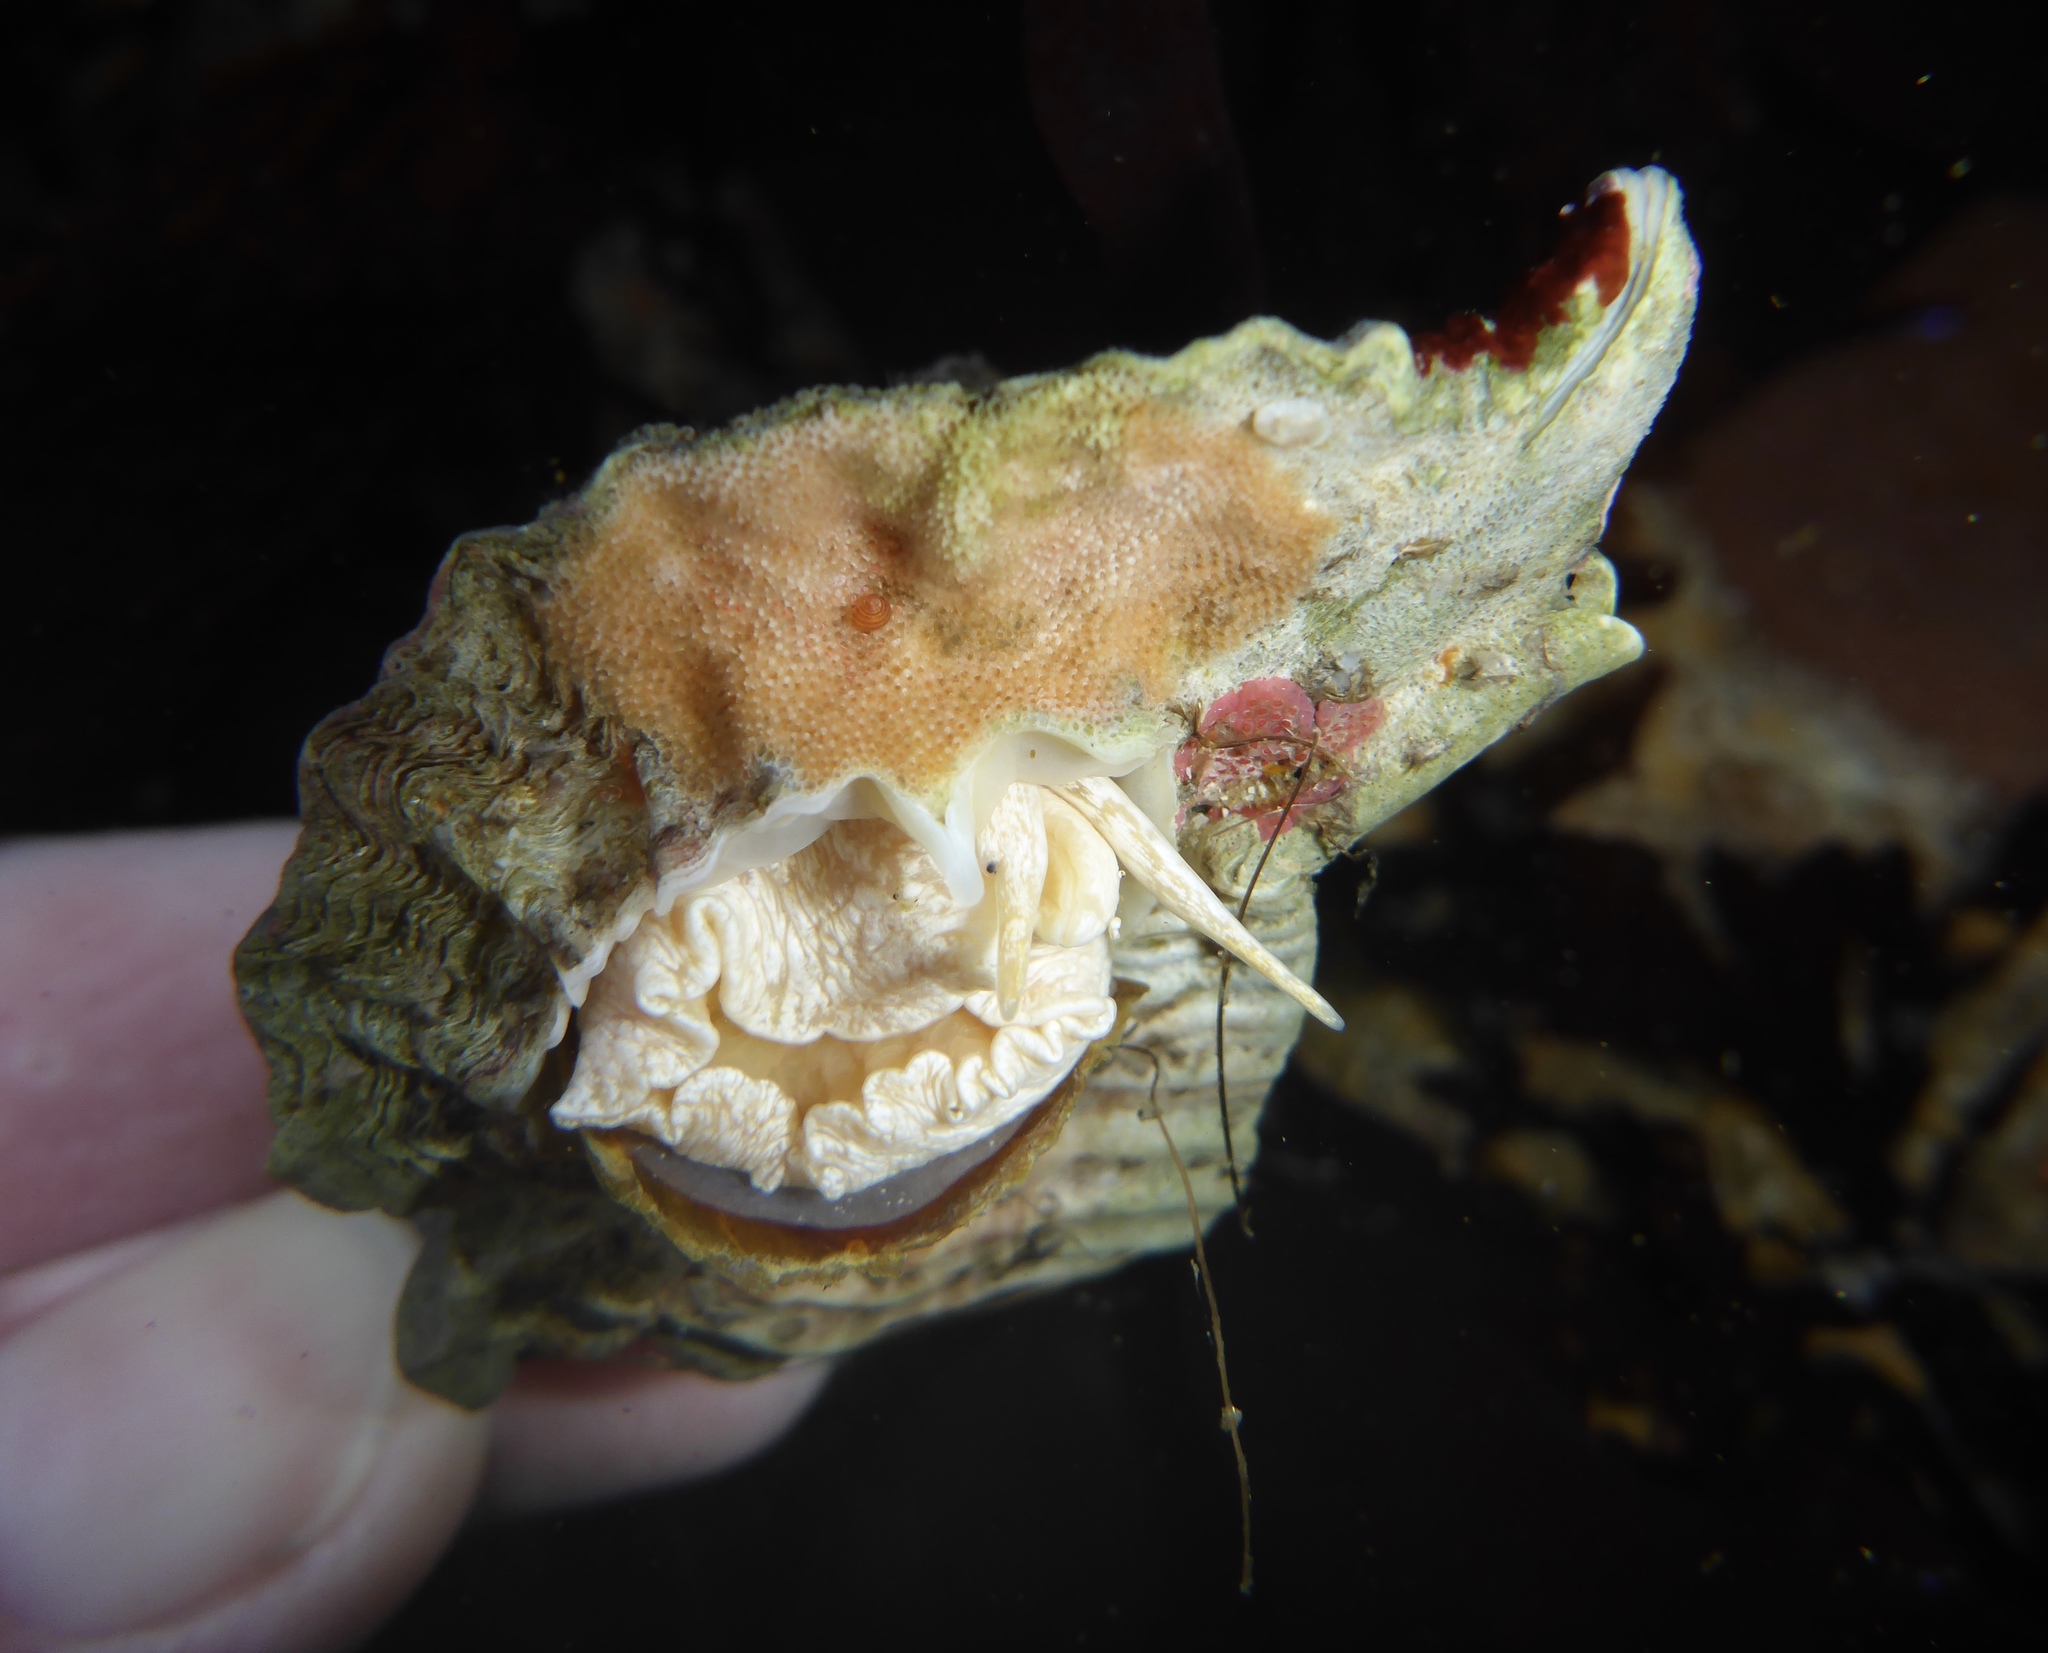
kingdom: Animalia
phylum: Mollusca
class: Gastropoda
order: Neogastropoda
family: Muricidae
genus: Ceratostoma
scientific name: Ceratostoma foliatum
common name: Foliate thorn purpura
